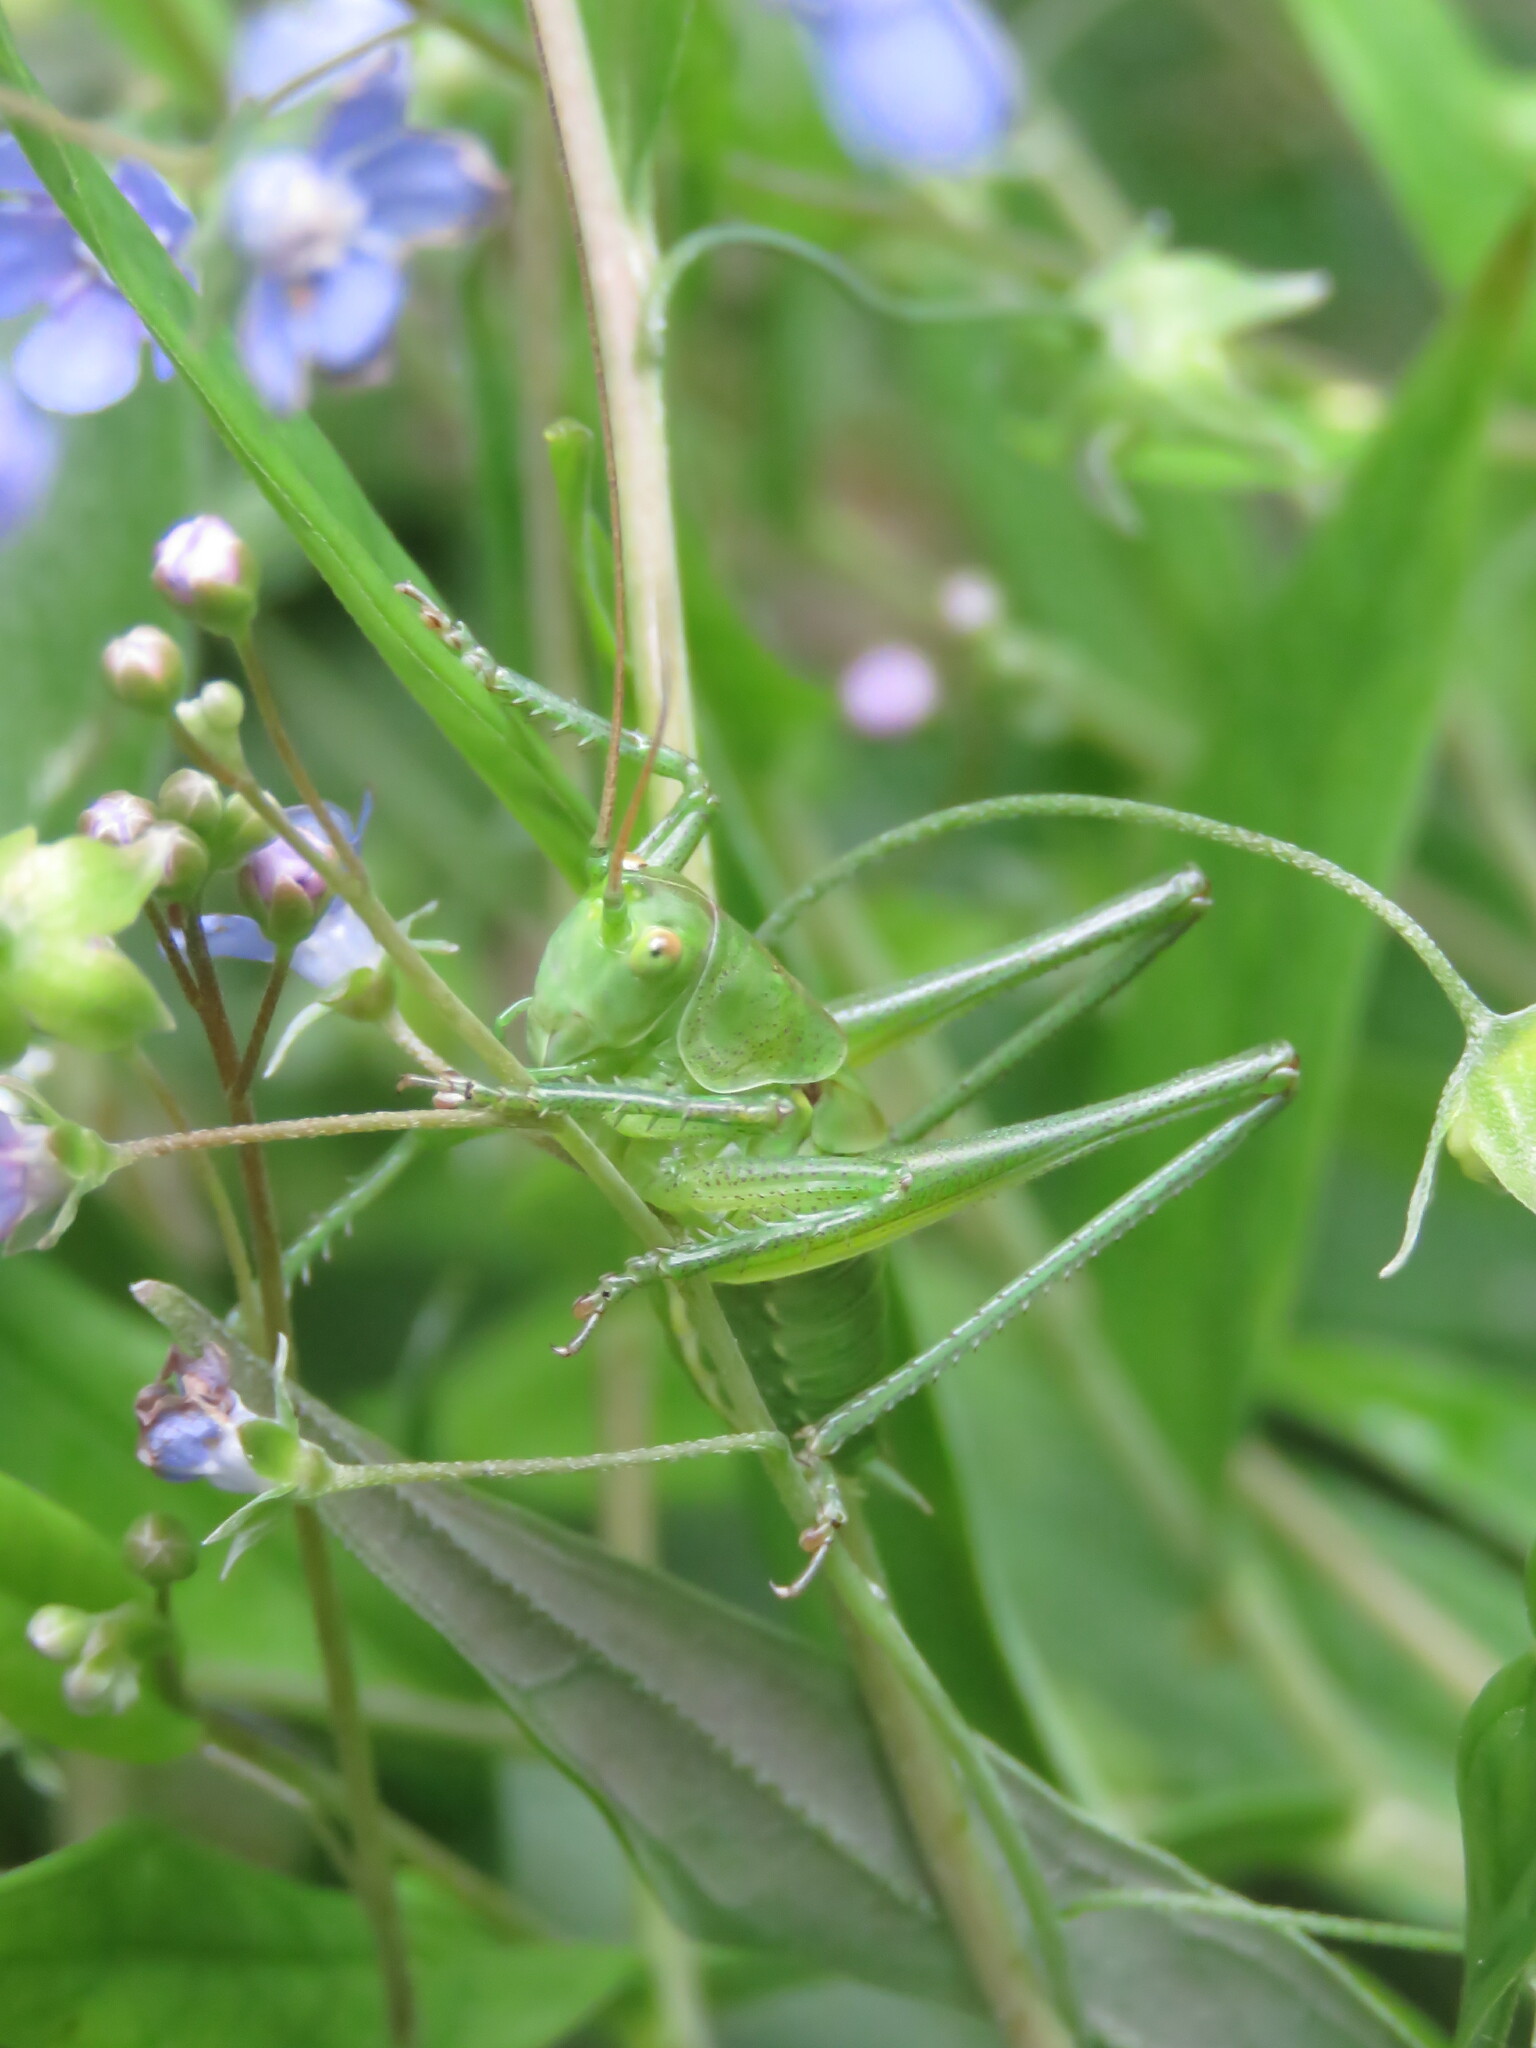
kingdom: Animalia
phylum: Arthropoda
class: Insecta
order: Orthoptera
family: Tettigoniidae
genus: Tettigonia
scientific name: Tettigonia viridissima
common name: Great green bush-cricket
